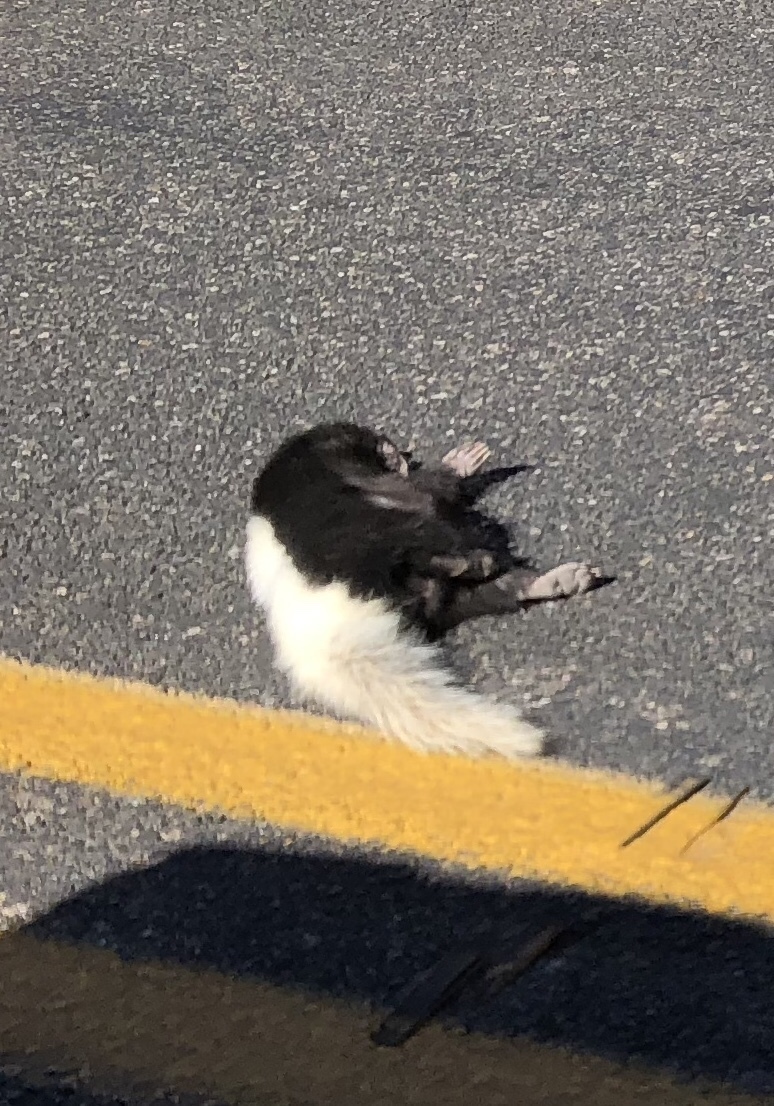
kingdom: Animalia
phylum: Chordata
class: Mammalia
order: Carnivora
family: Mephitidae
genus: Conepatus
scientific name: Conepatus leuconotus
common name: Eastern hog-nosed skunk
